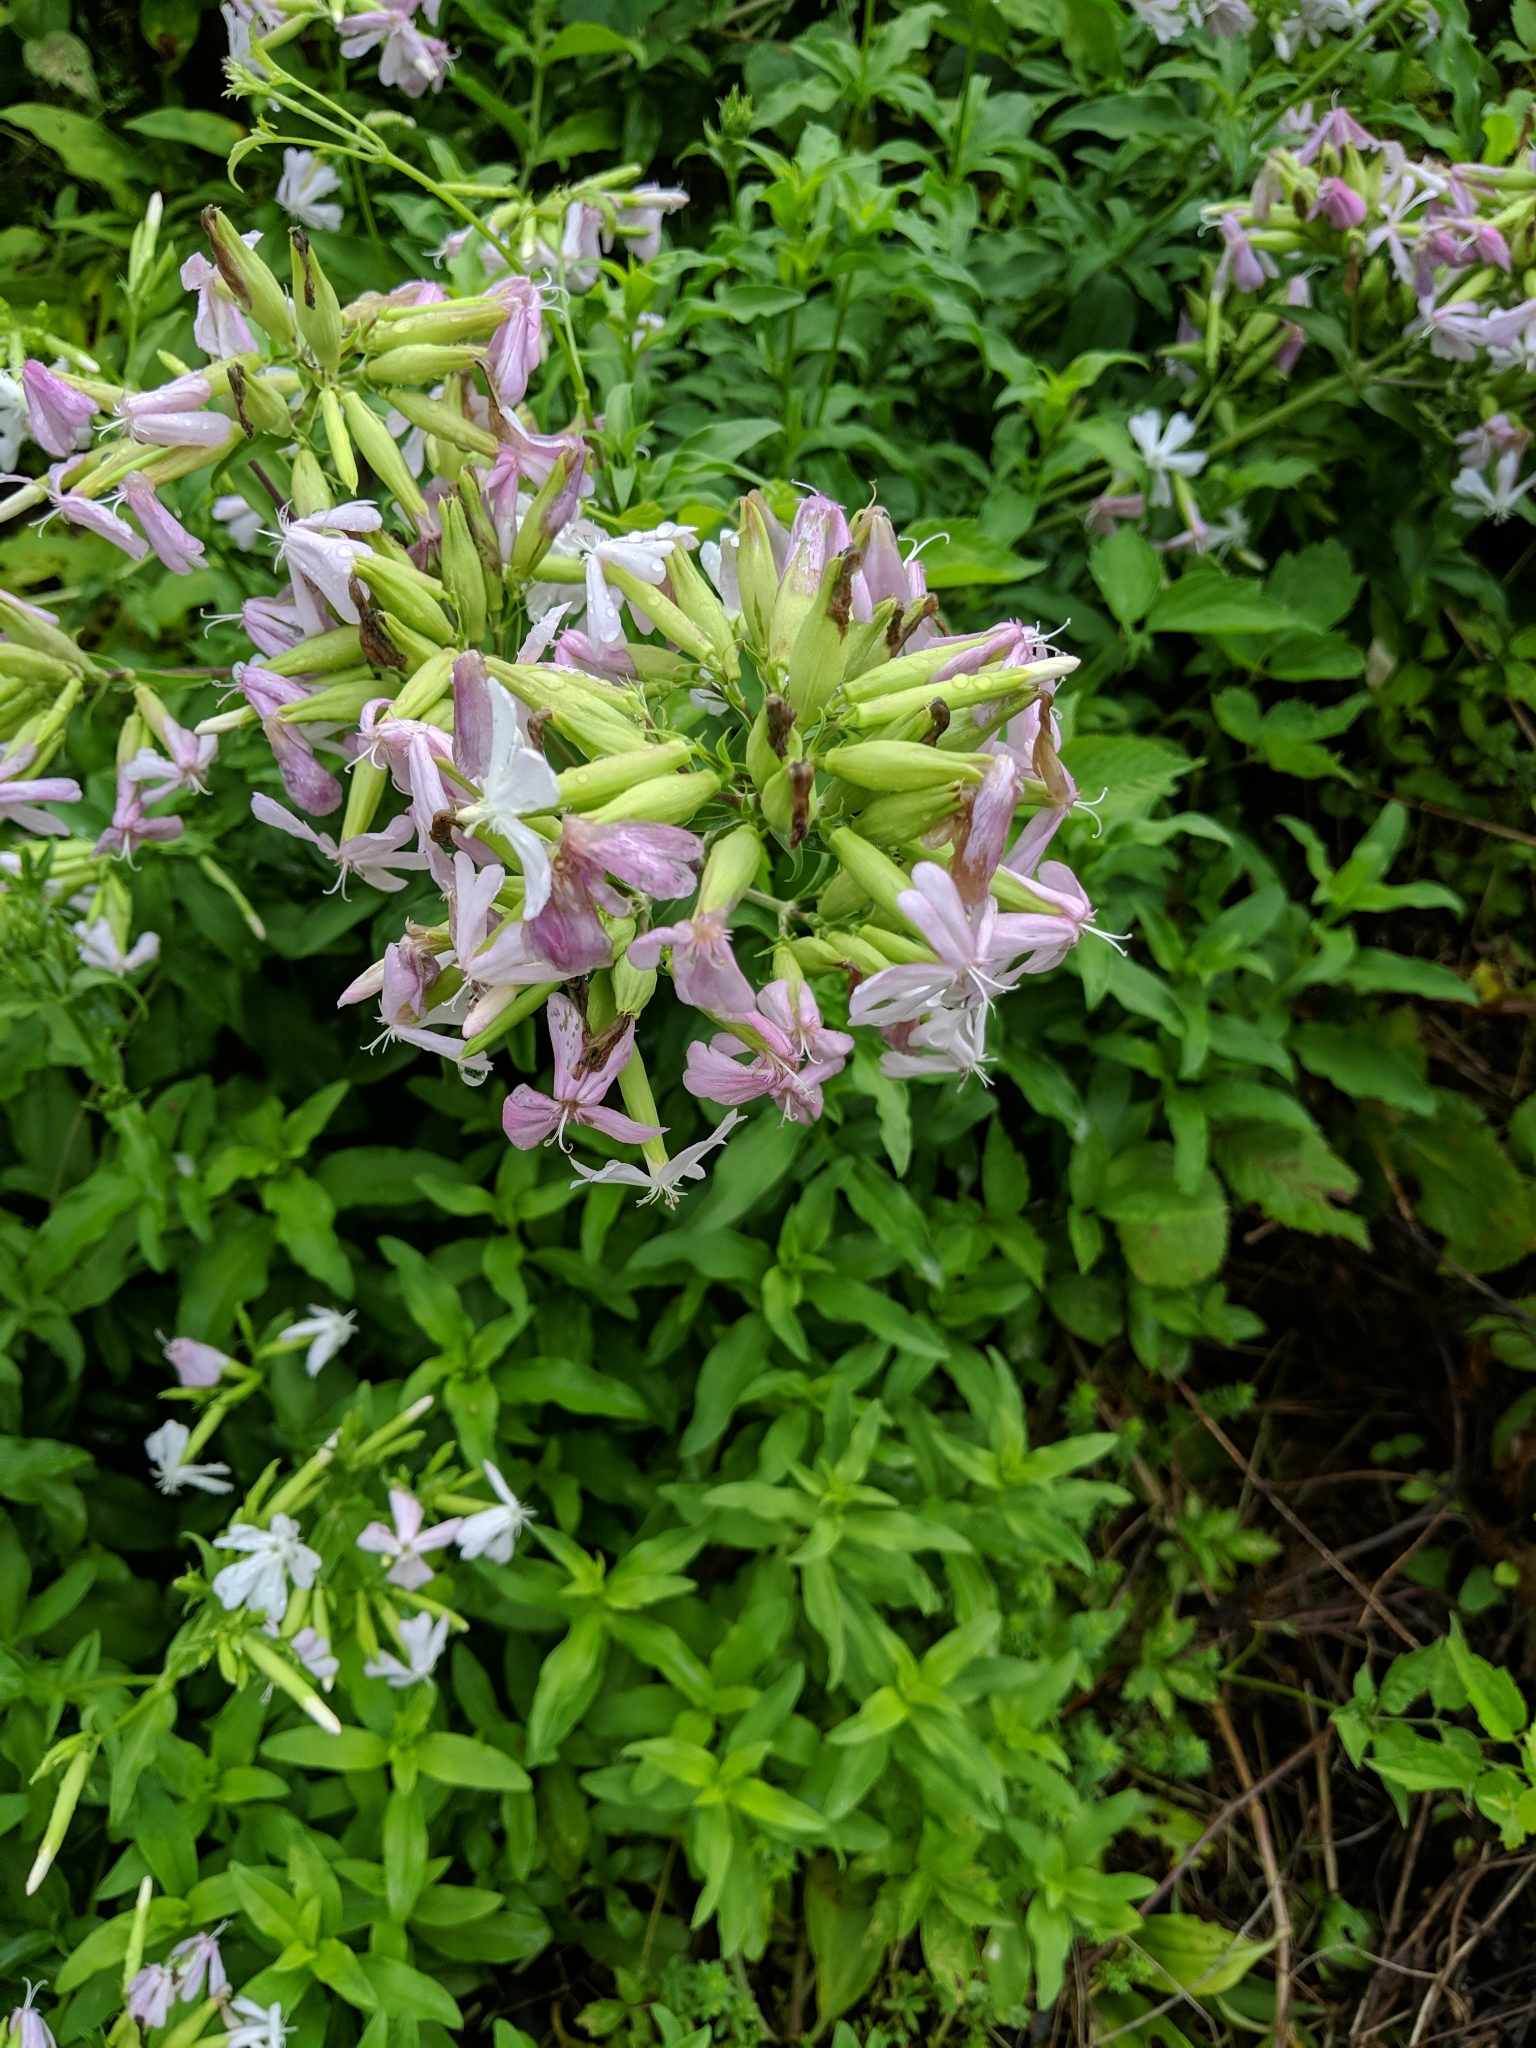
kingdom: Plantae
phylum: Tracheophyta
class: Magnoliopsida
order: Caryophyllales
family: Caryophyllaceae
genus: Saponaria
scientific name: Saponaria officinalis
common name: Soapwort
